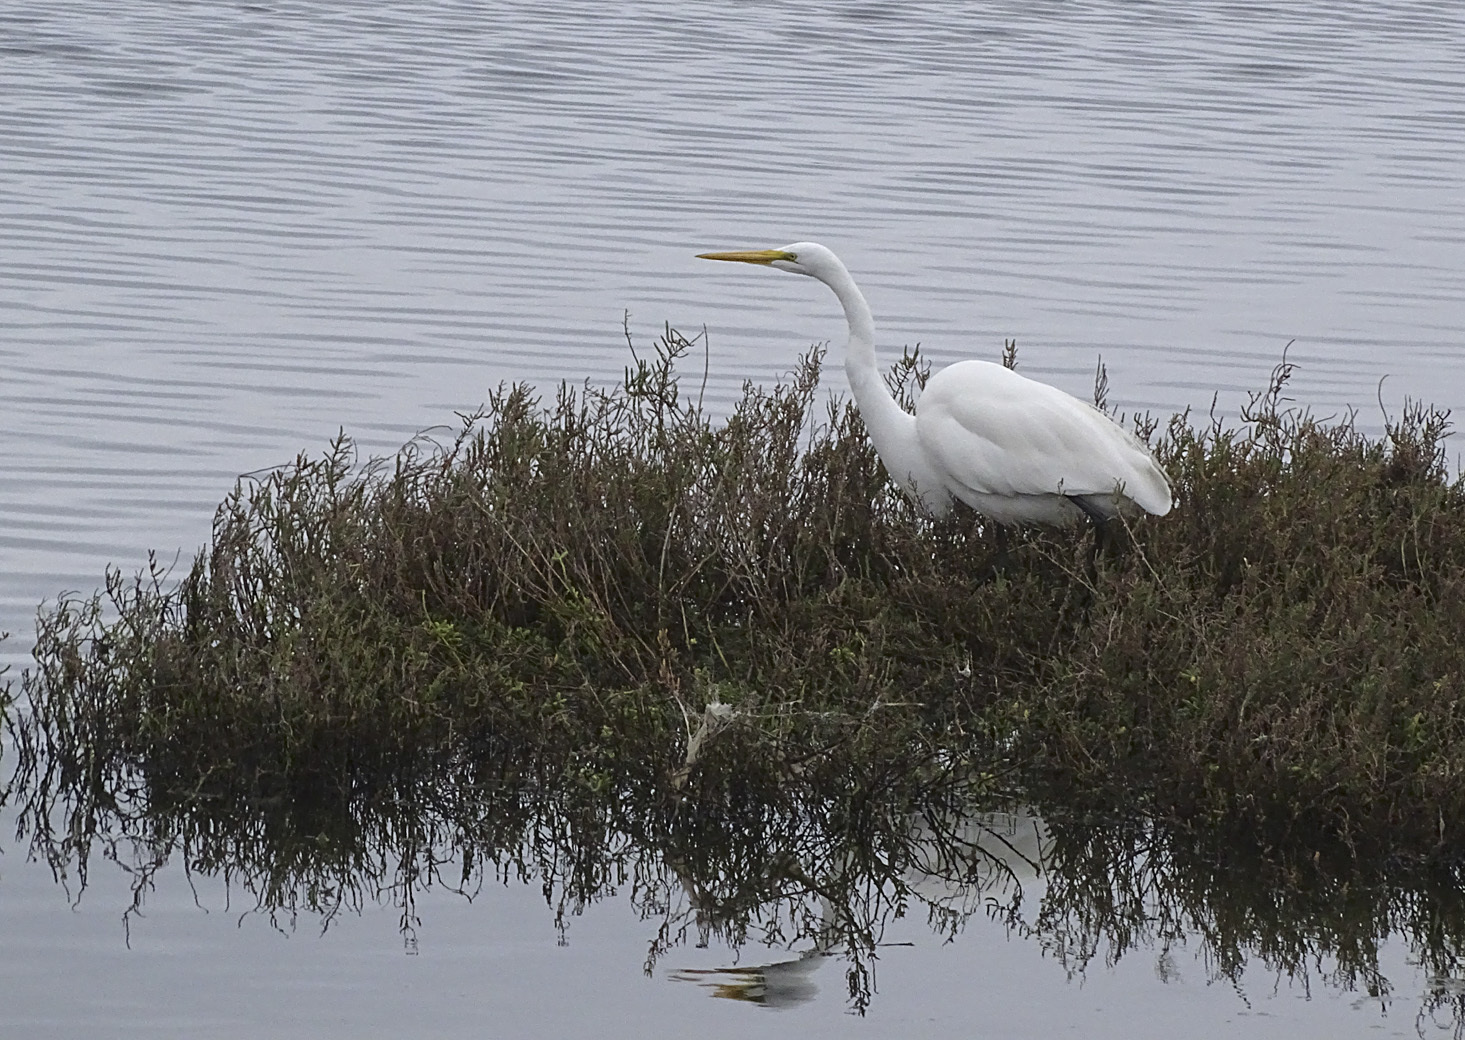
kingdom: Animalia
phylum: Chordata
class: Aves
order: Pelecaniformes
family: Ardeidae
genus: Ardea
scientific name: Ardea alba
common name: Great egret
